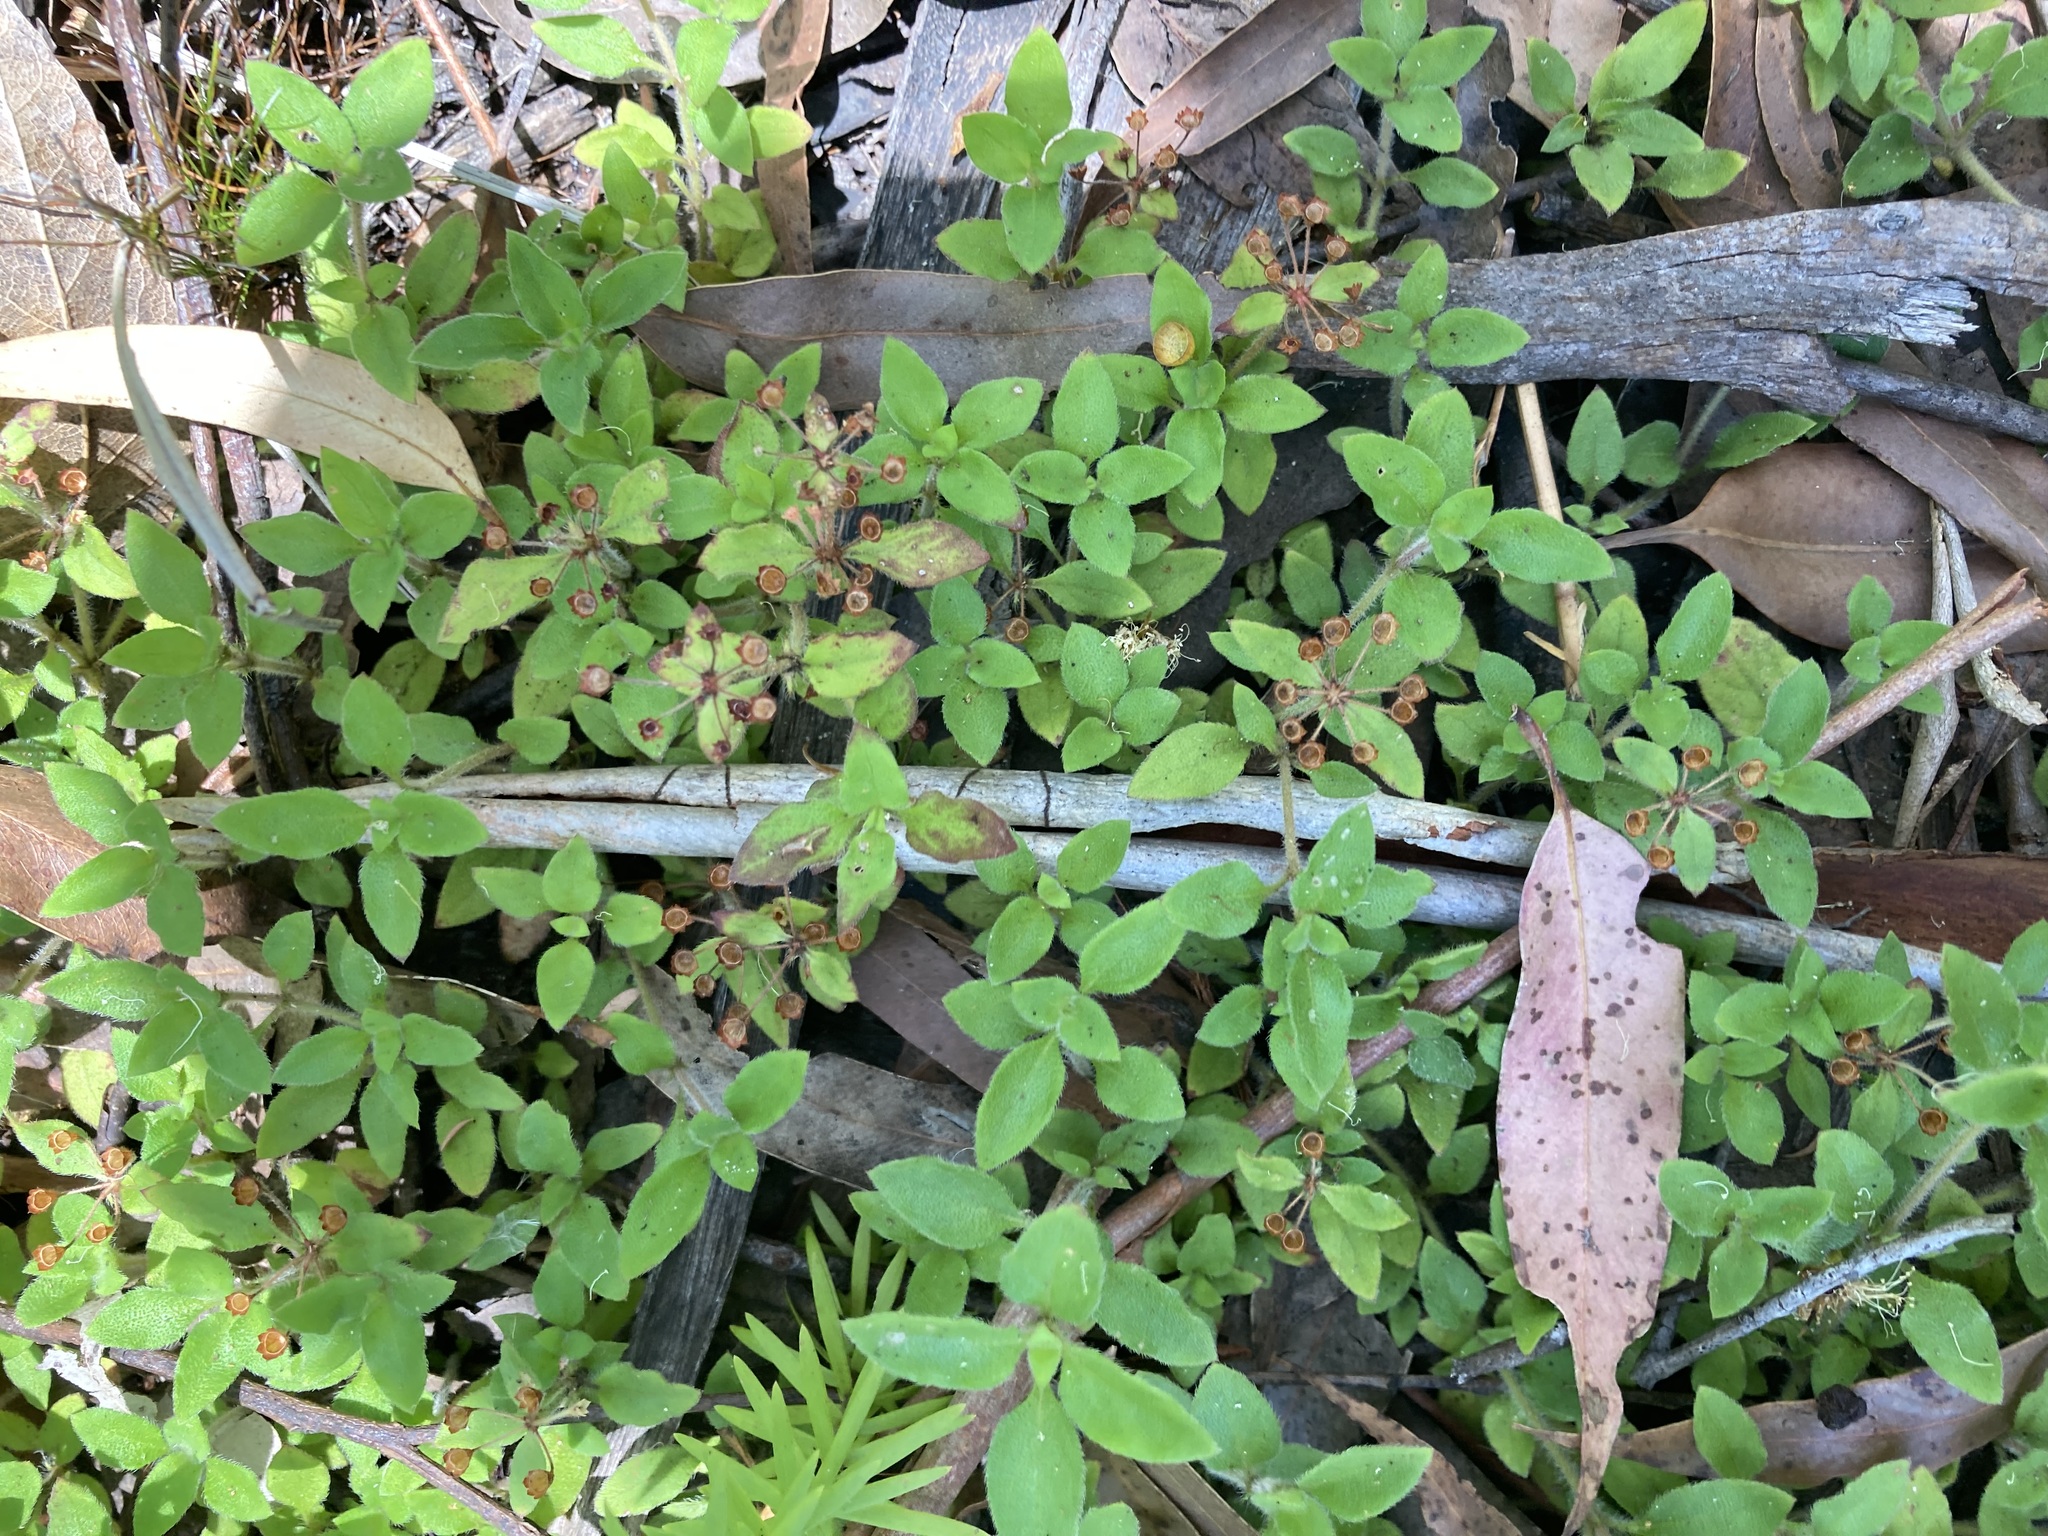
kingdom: Plantae
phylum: Tracheophyta
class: Magnoliopsida
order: Gentianales
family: Rubiaceae
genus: Pomax
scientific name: Pomax umbellata
